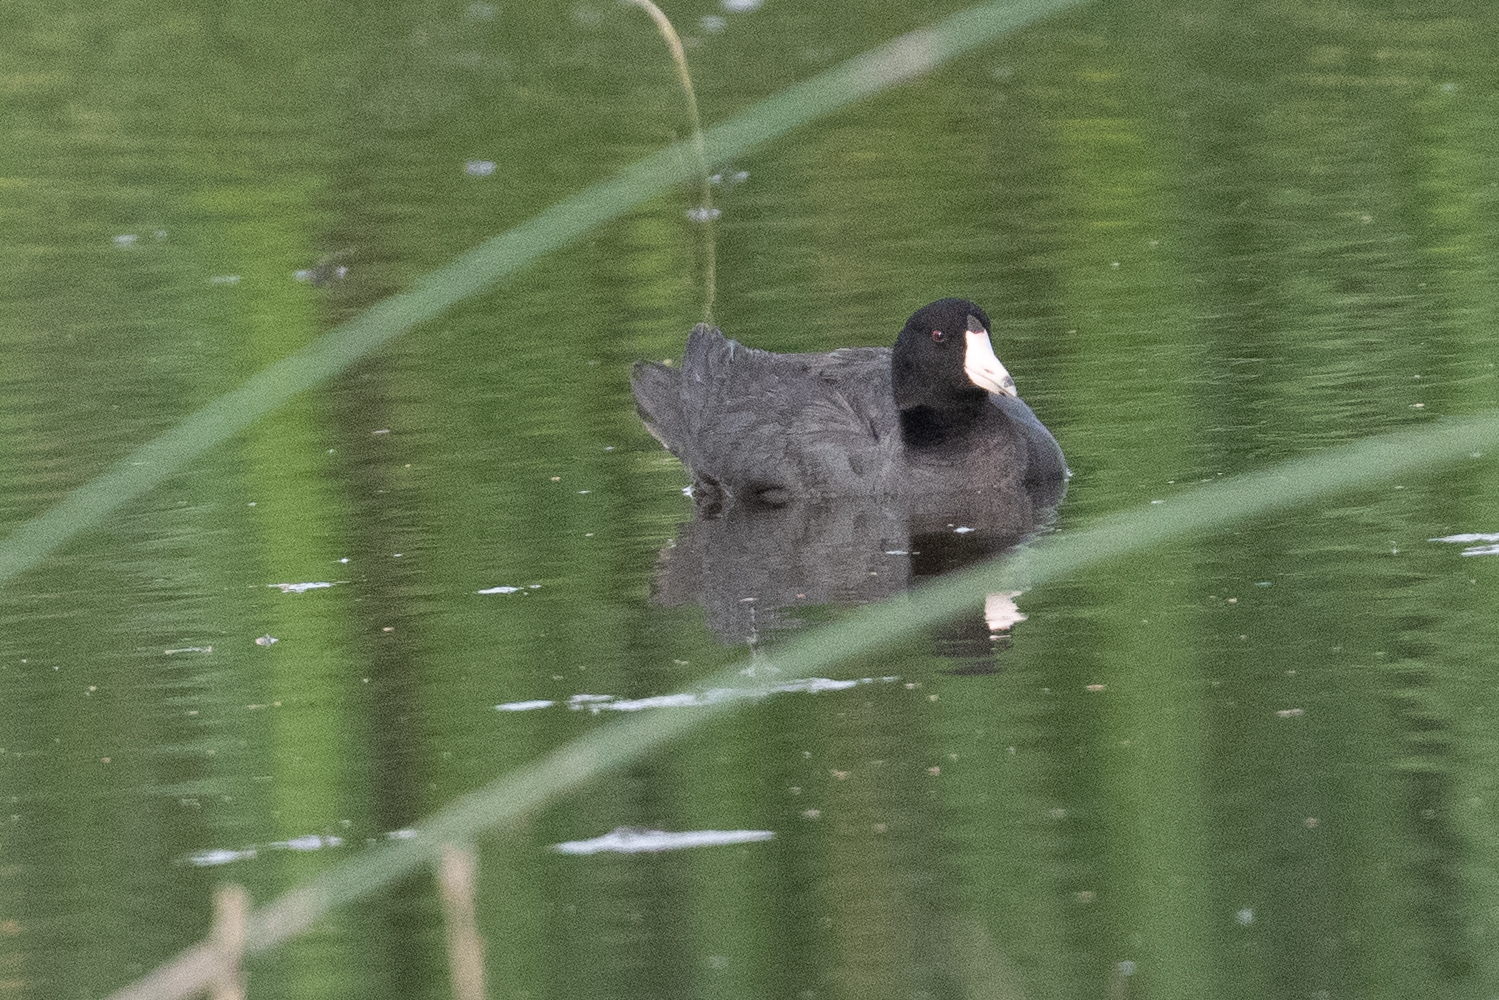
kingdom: Animalia
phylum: Chordata
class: Aves
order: Gruiformes
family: Rallidae
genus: Fulica
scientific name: Fulica americana
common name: American coot
